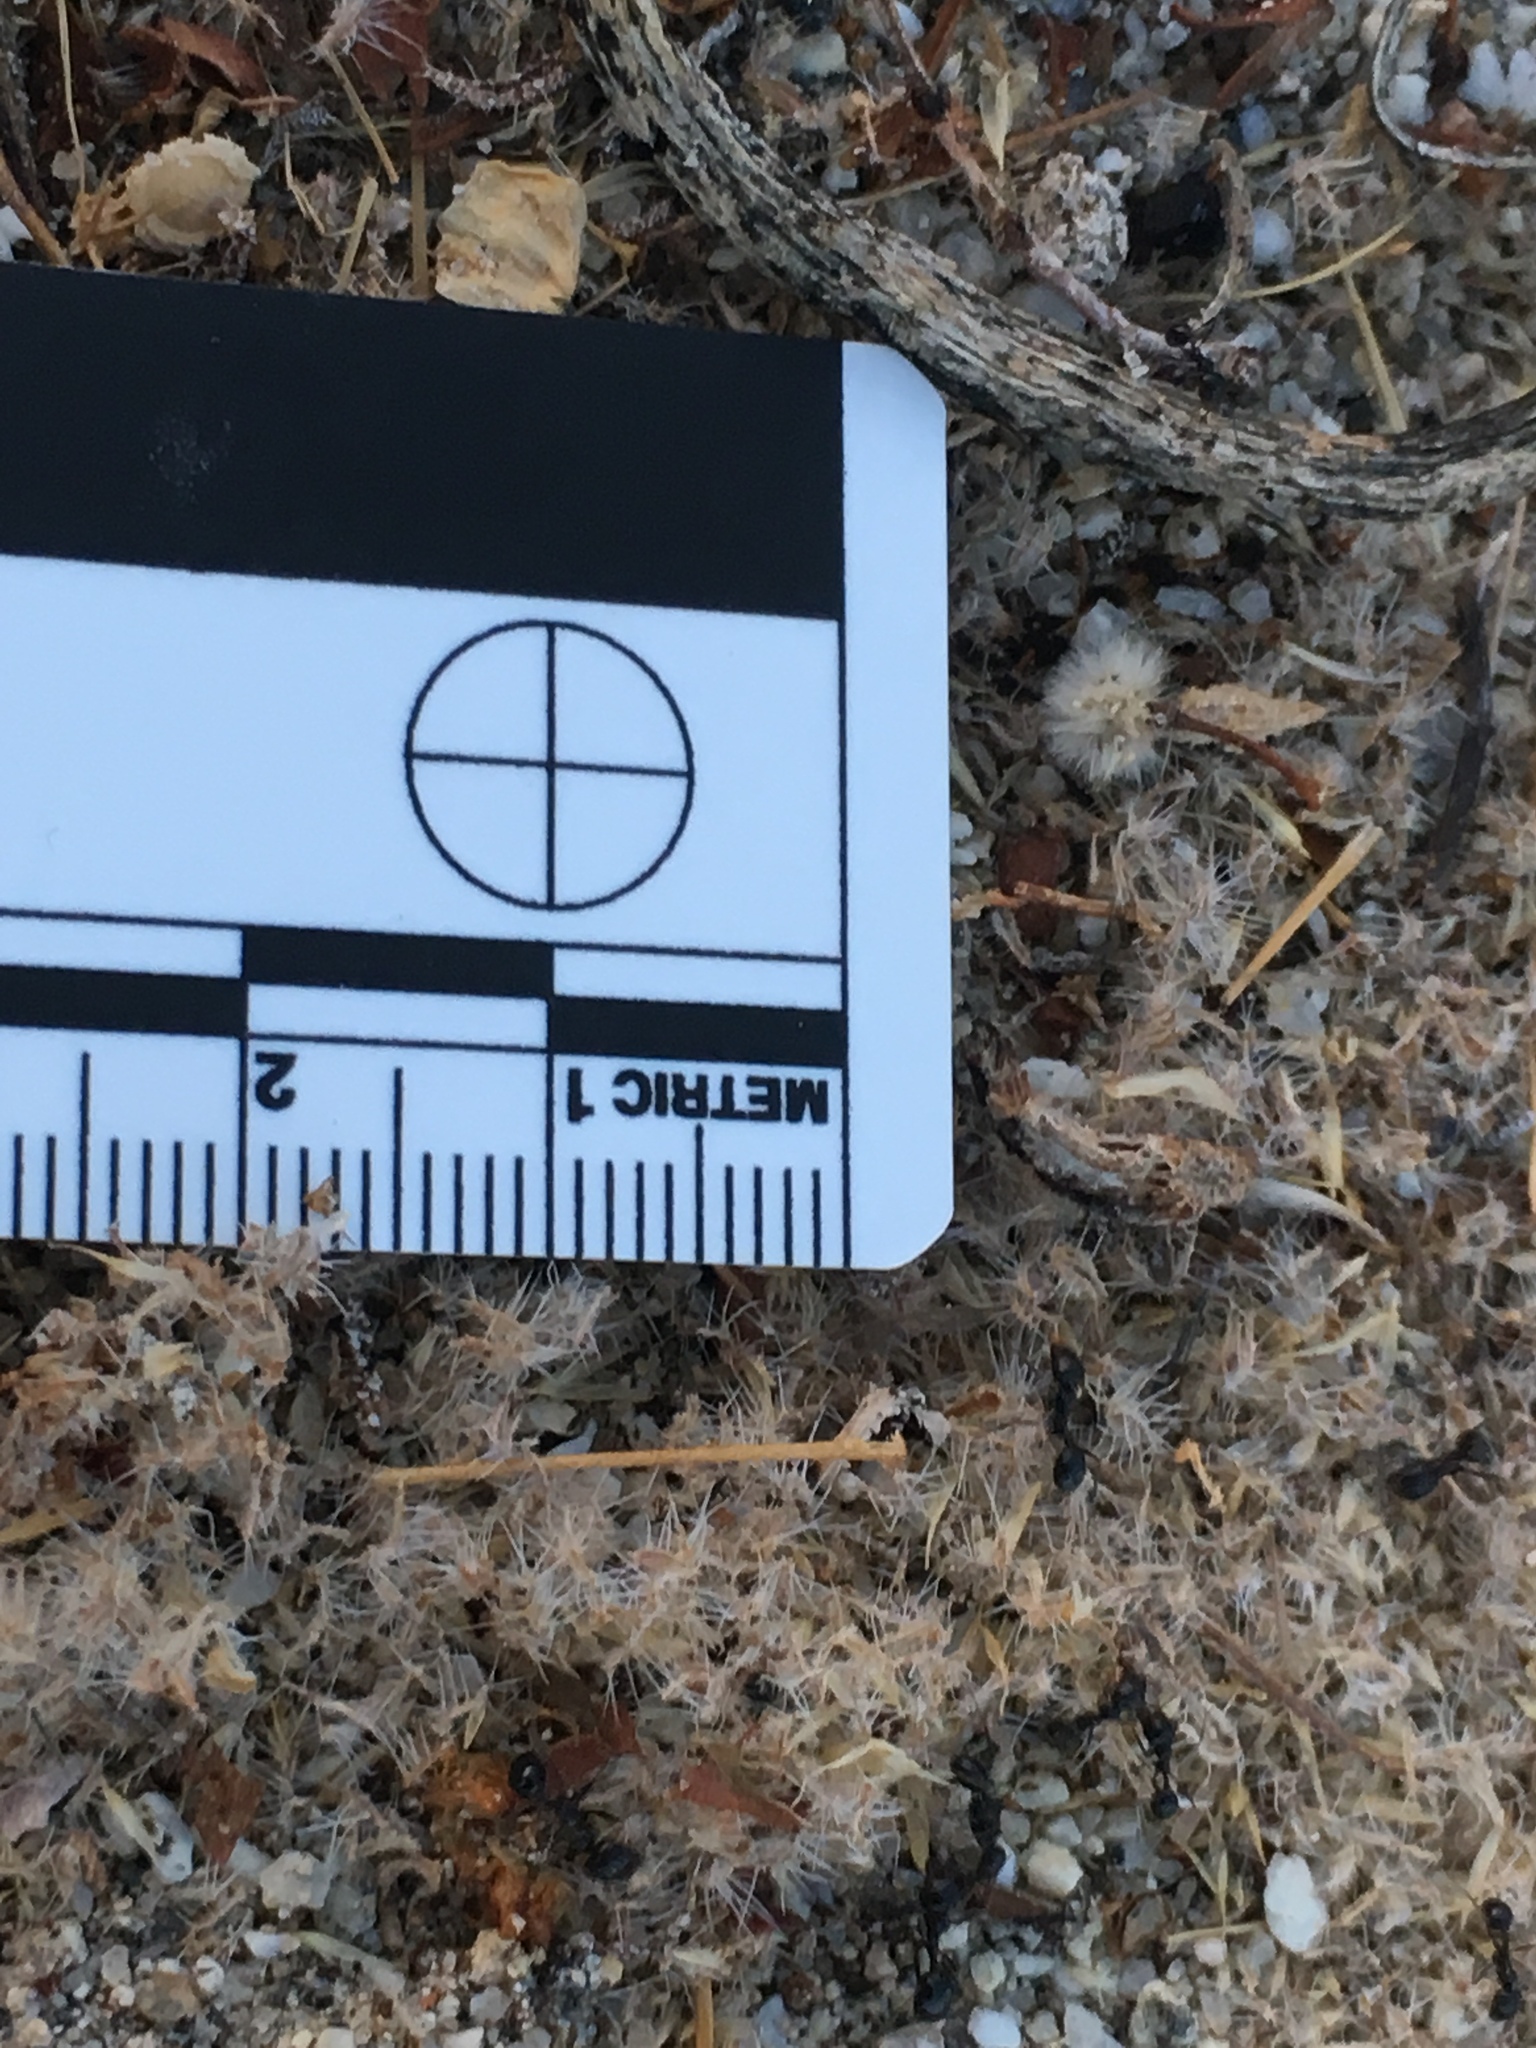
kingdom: Animalia
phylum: Arthropoda
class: Insecta
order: Hymenoptera
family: Formicidae
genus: Messor
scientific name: Messor pergandei
